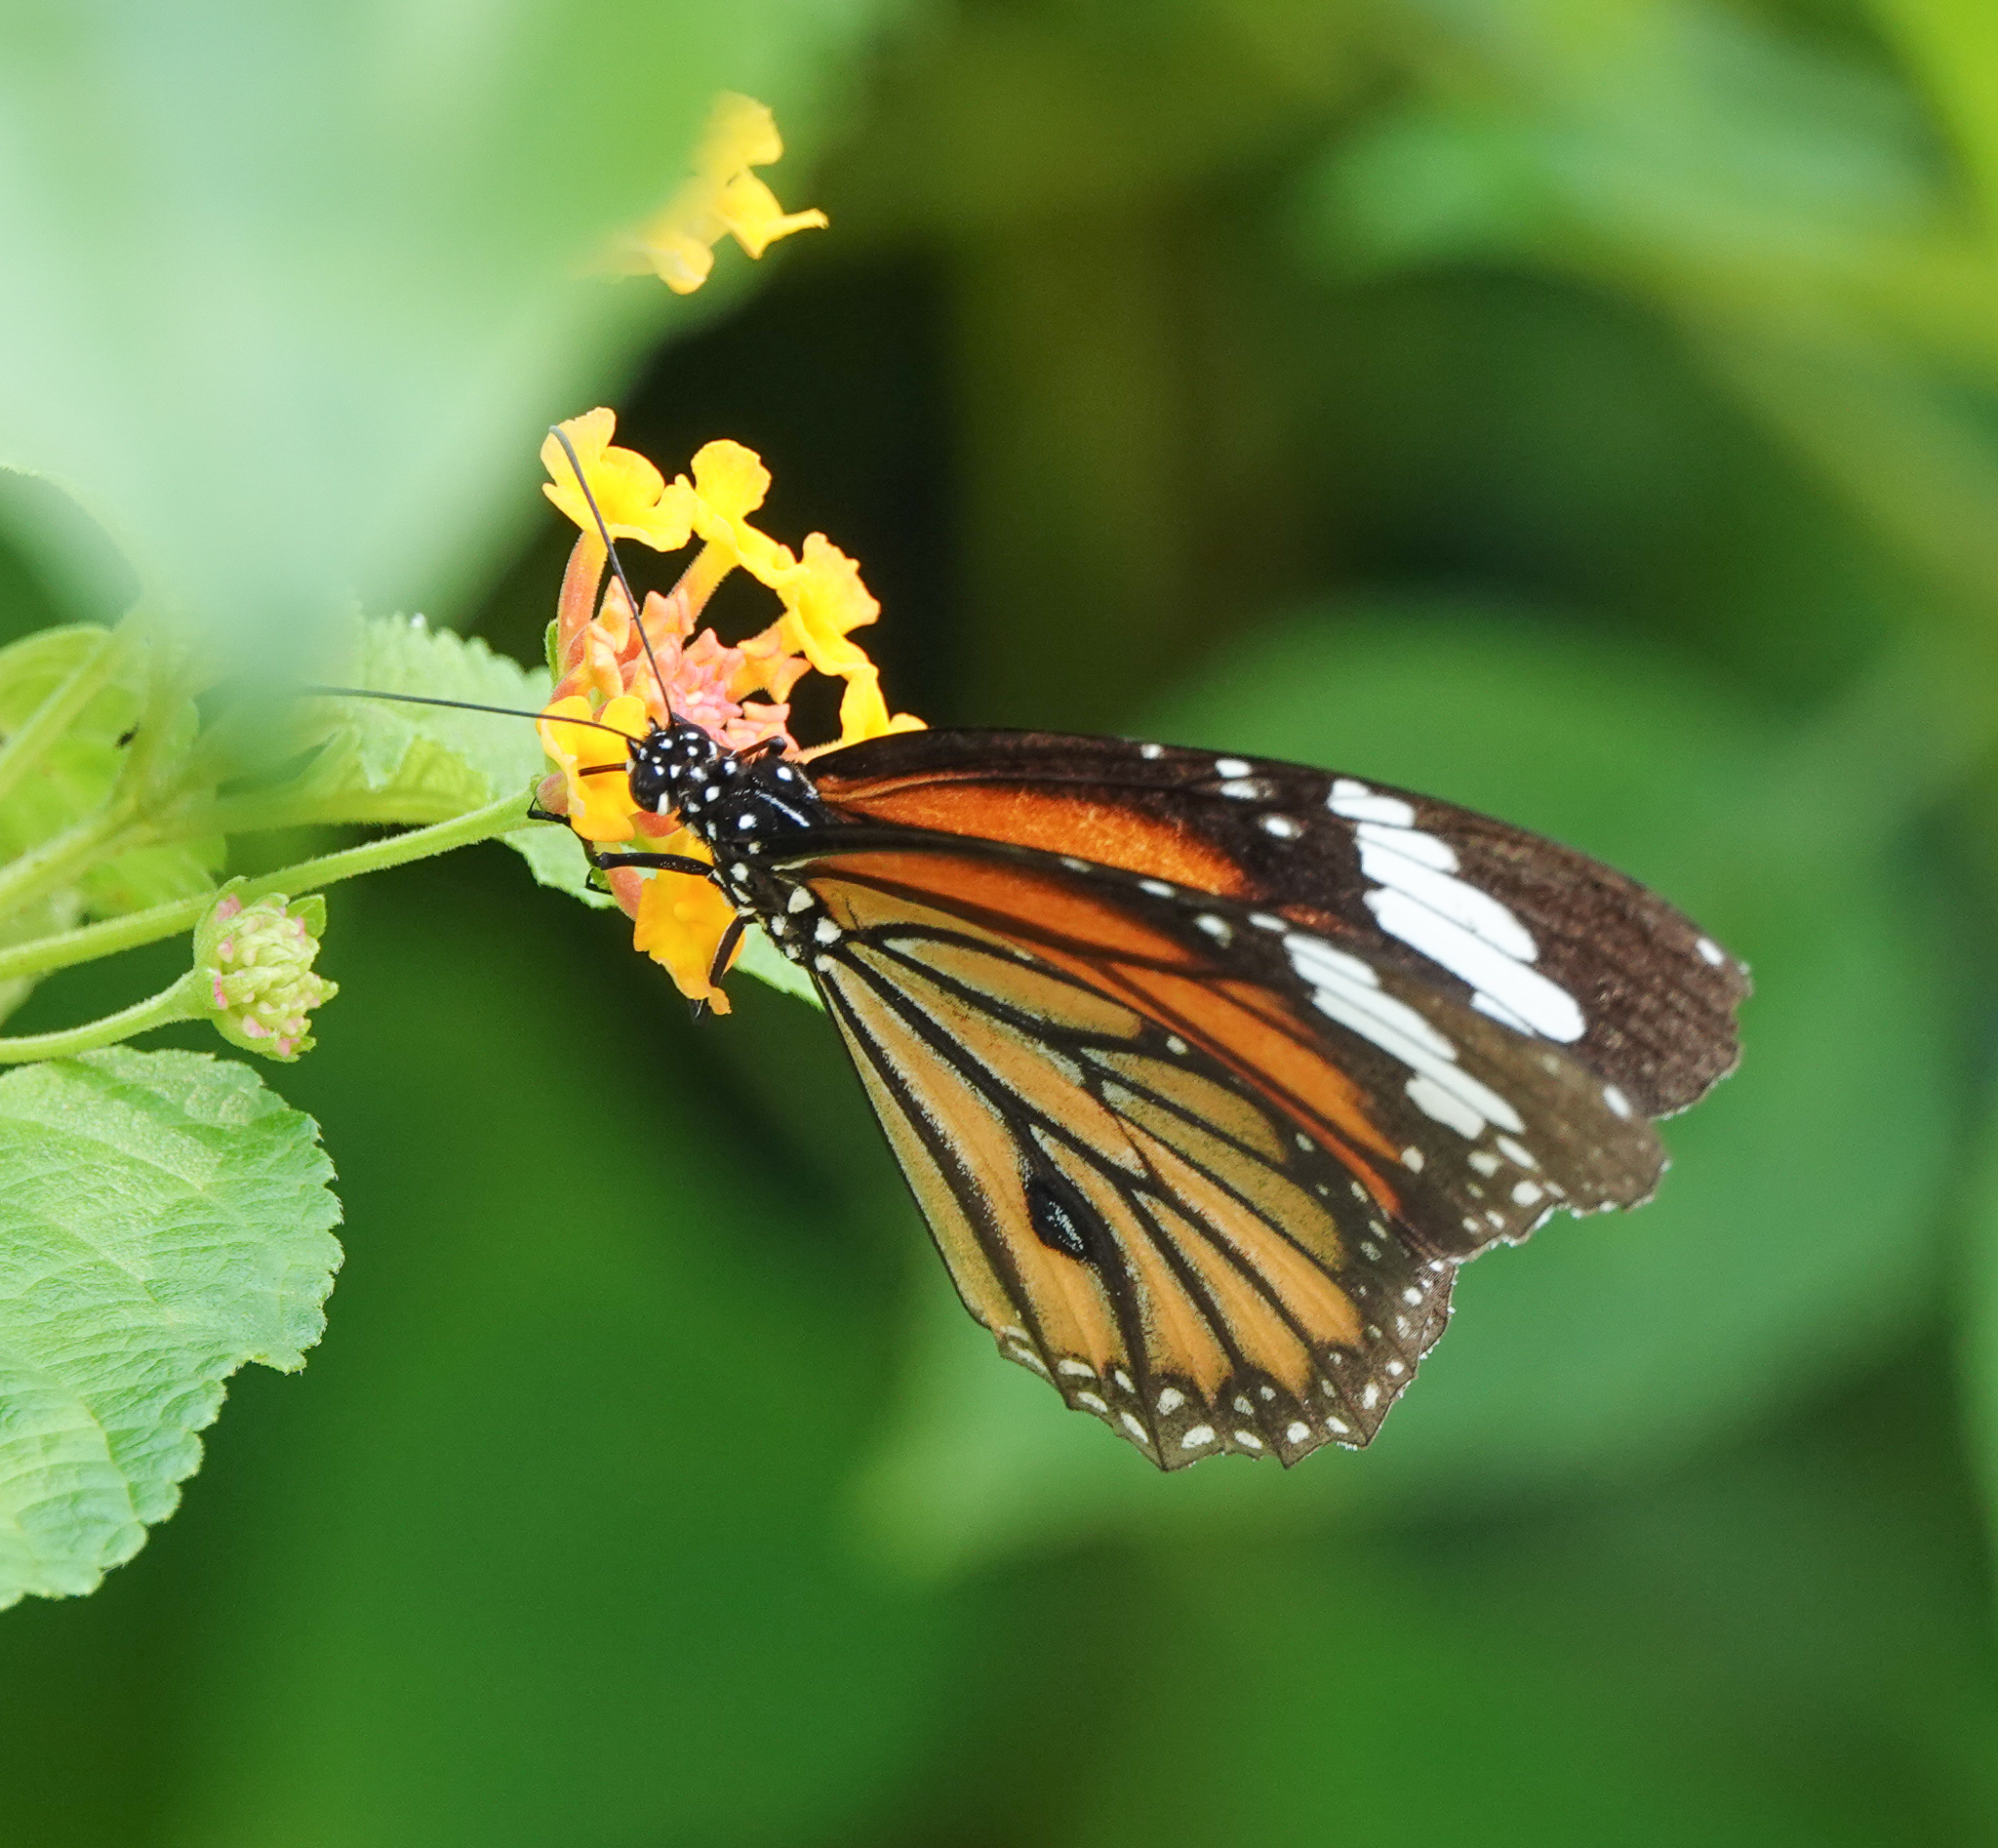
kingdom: Animalia
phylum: Arthropoda
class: Insecta
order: Lepidoptera
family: Nymphalidae
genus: Danaus
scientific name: Danaus genutia
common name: Common tiger butterfly
